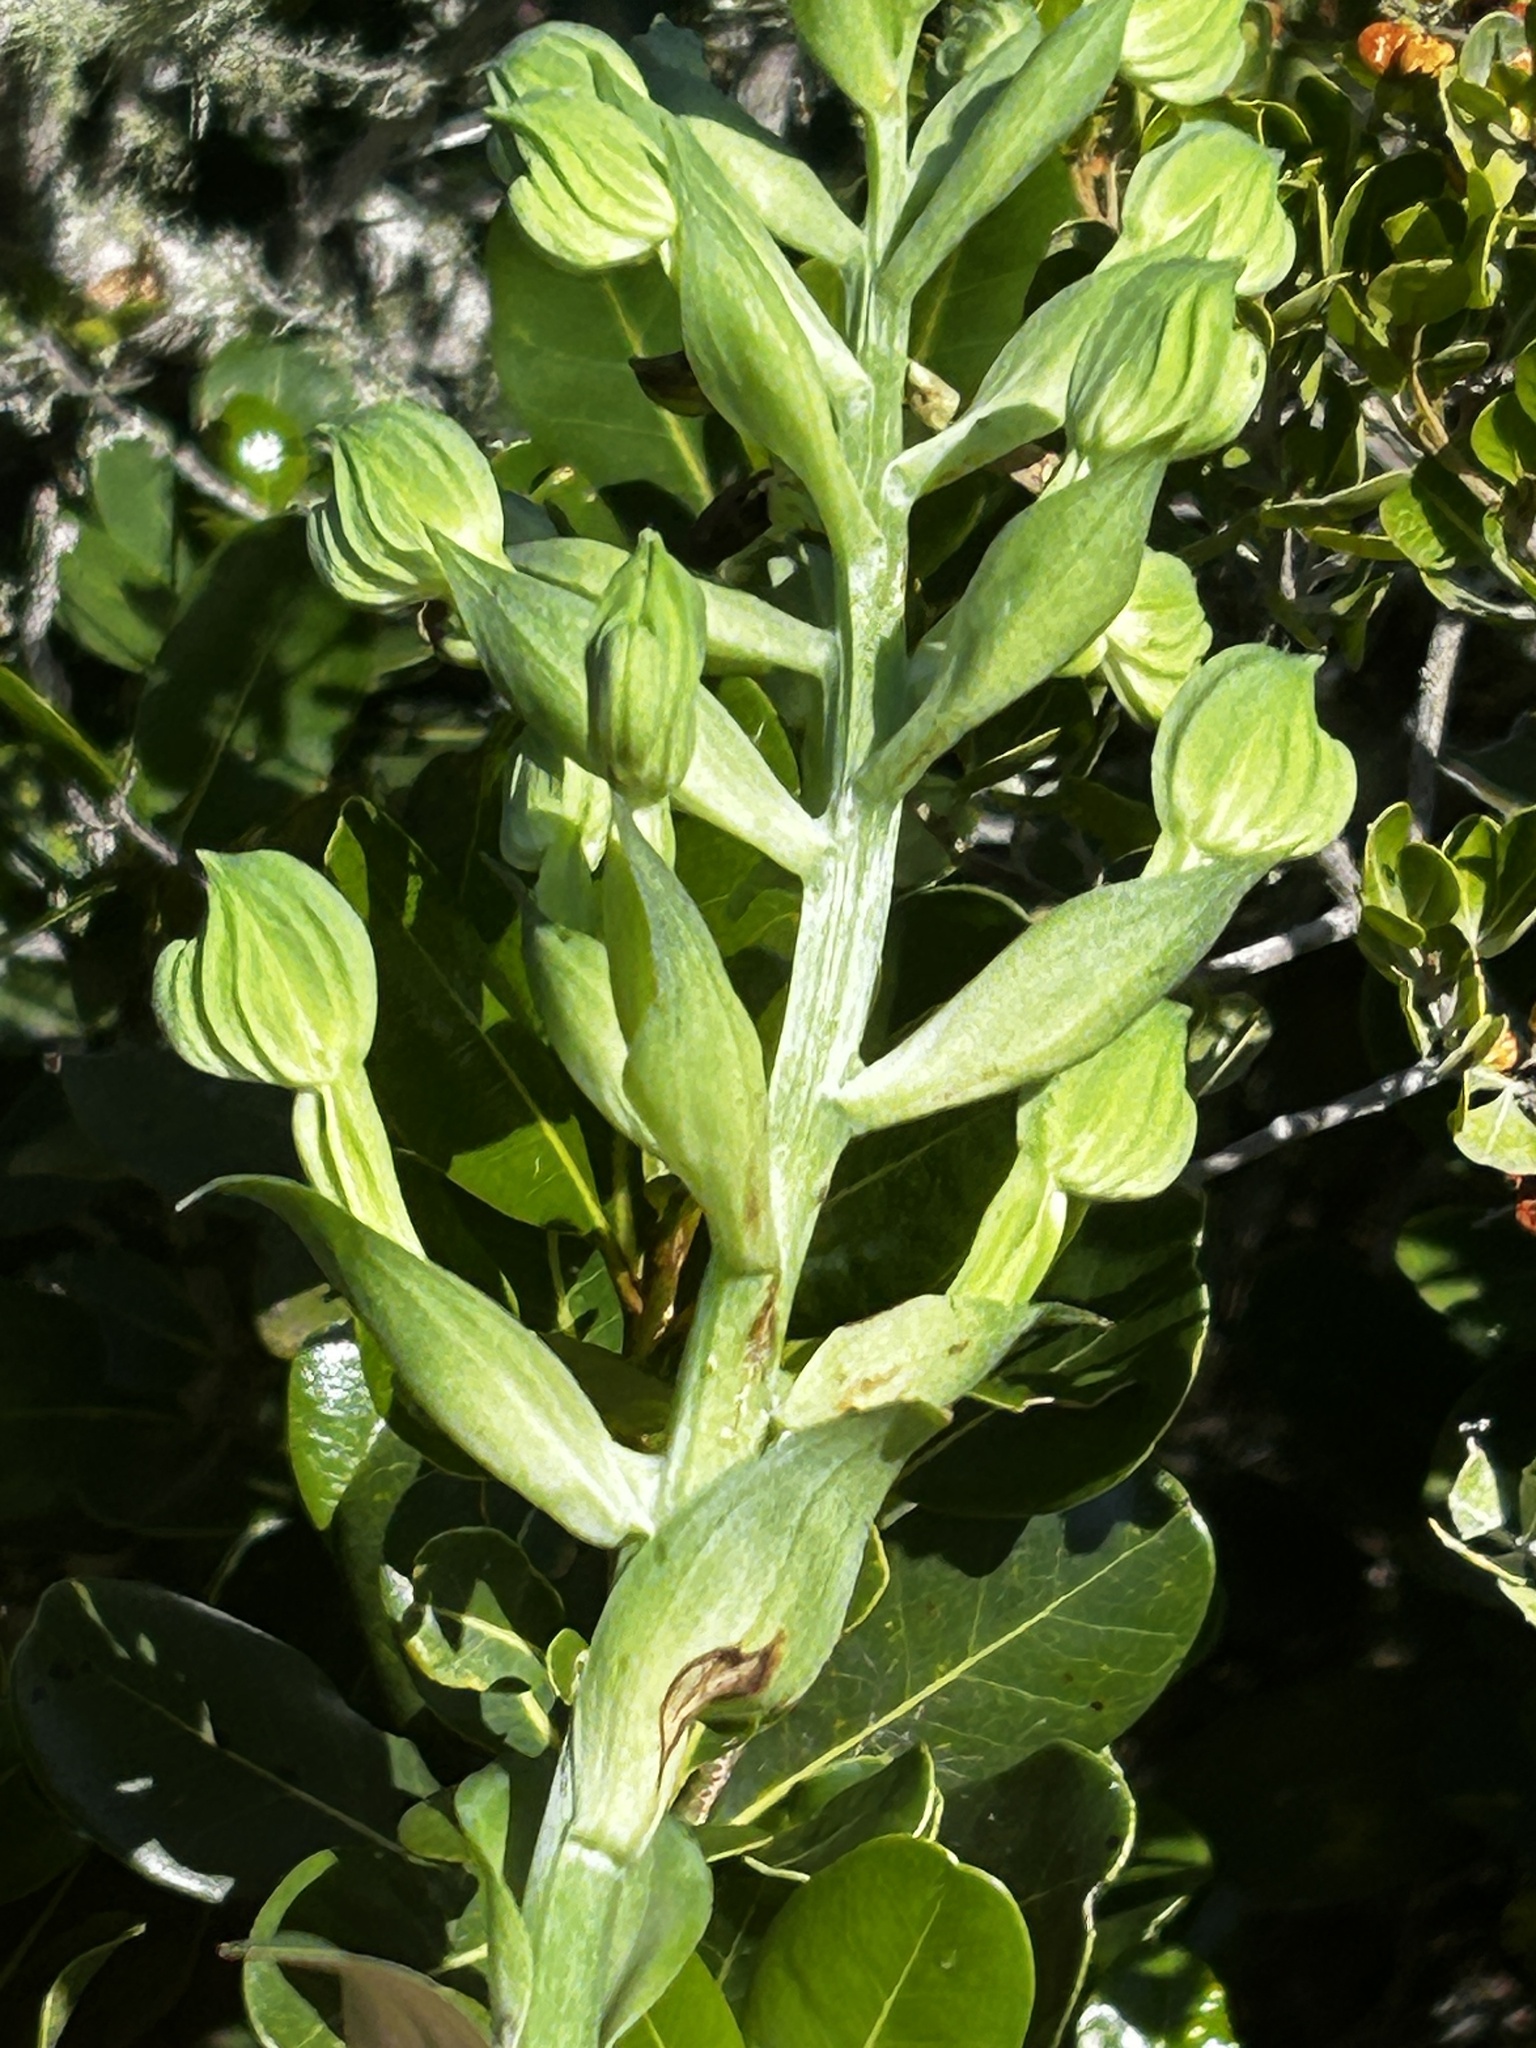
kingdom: Plantae
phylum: Tracheophyta
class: Liliopsida
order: Asparagales
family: Orchidaceae
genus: Bonatea
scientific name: Bonatea speciosa
